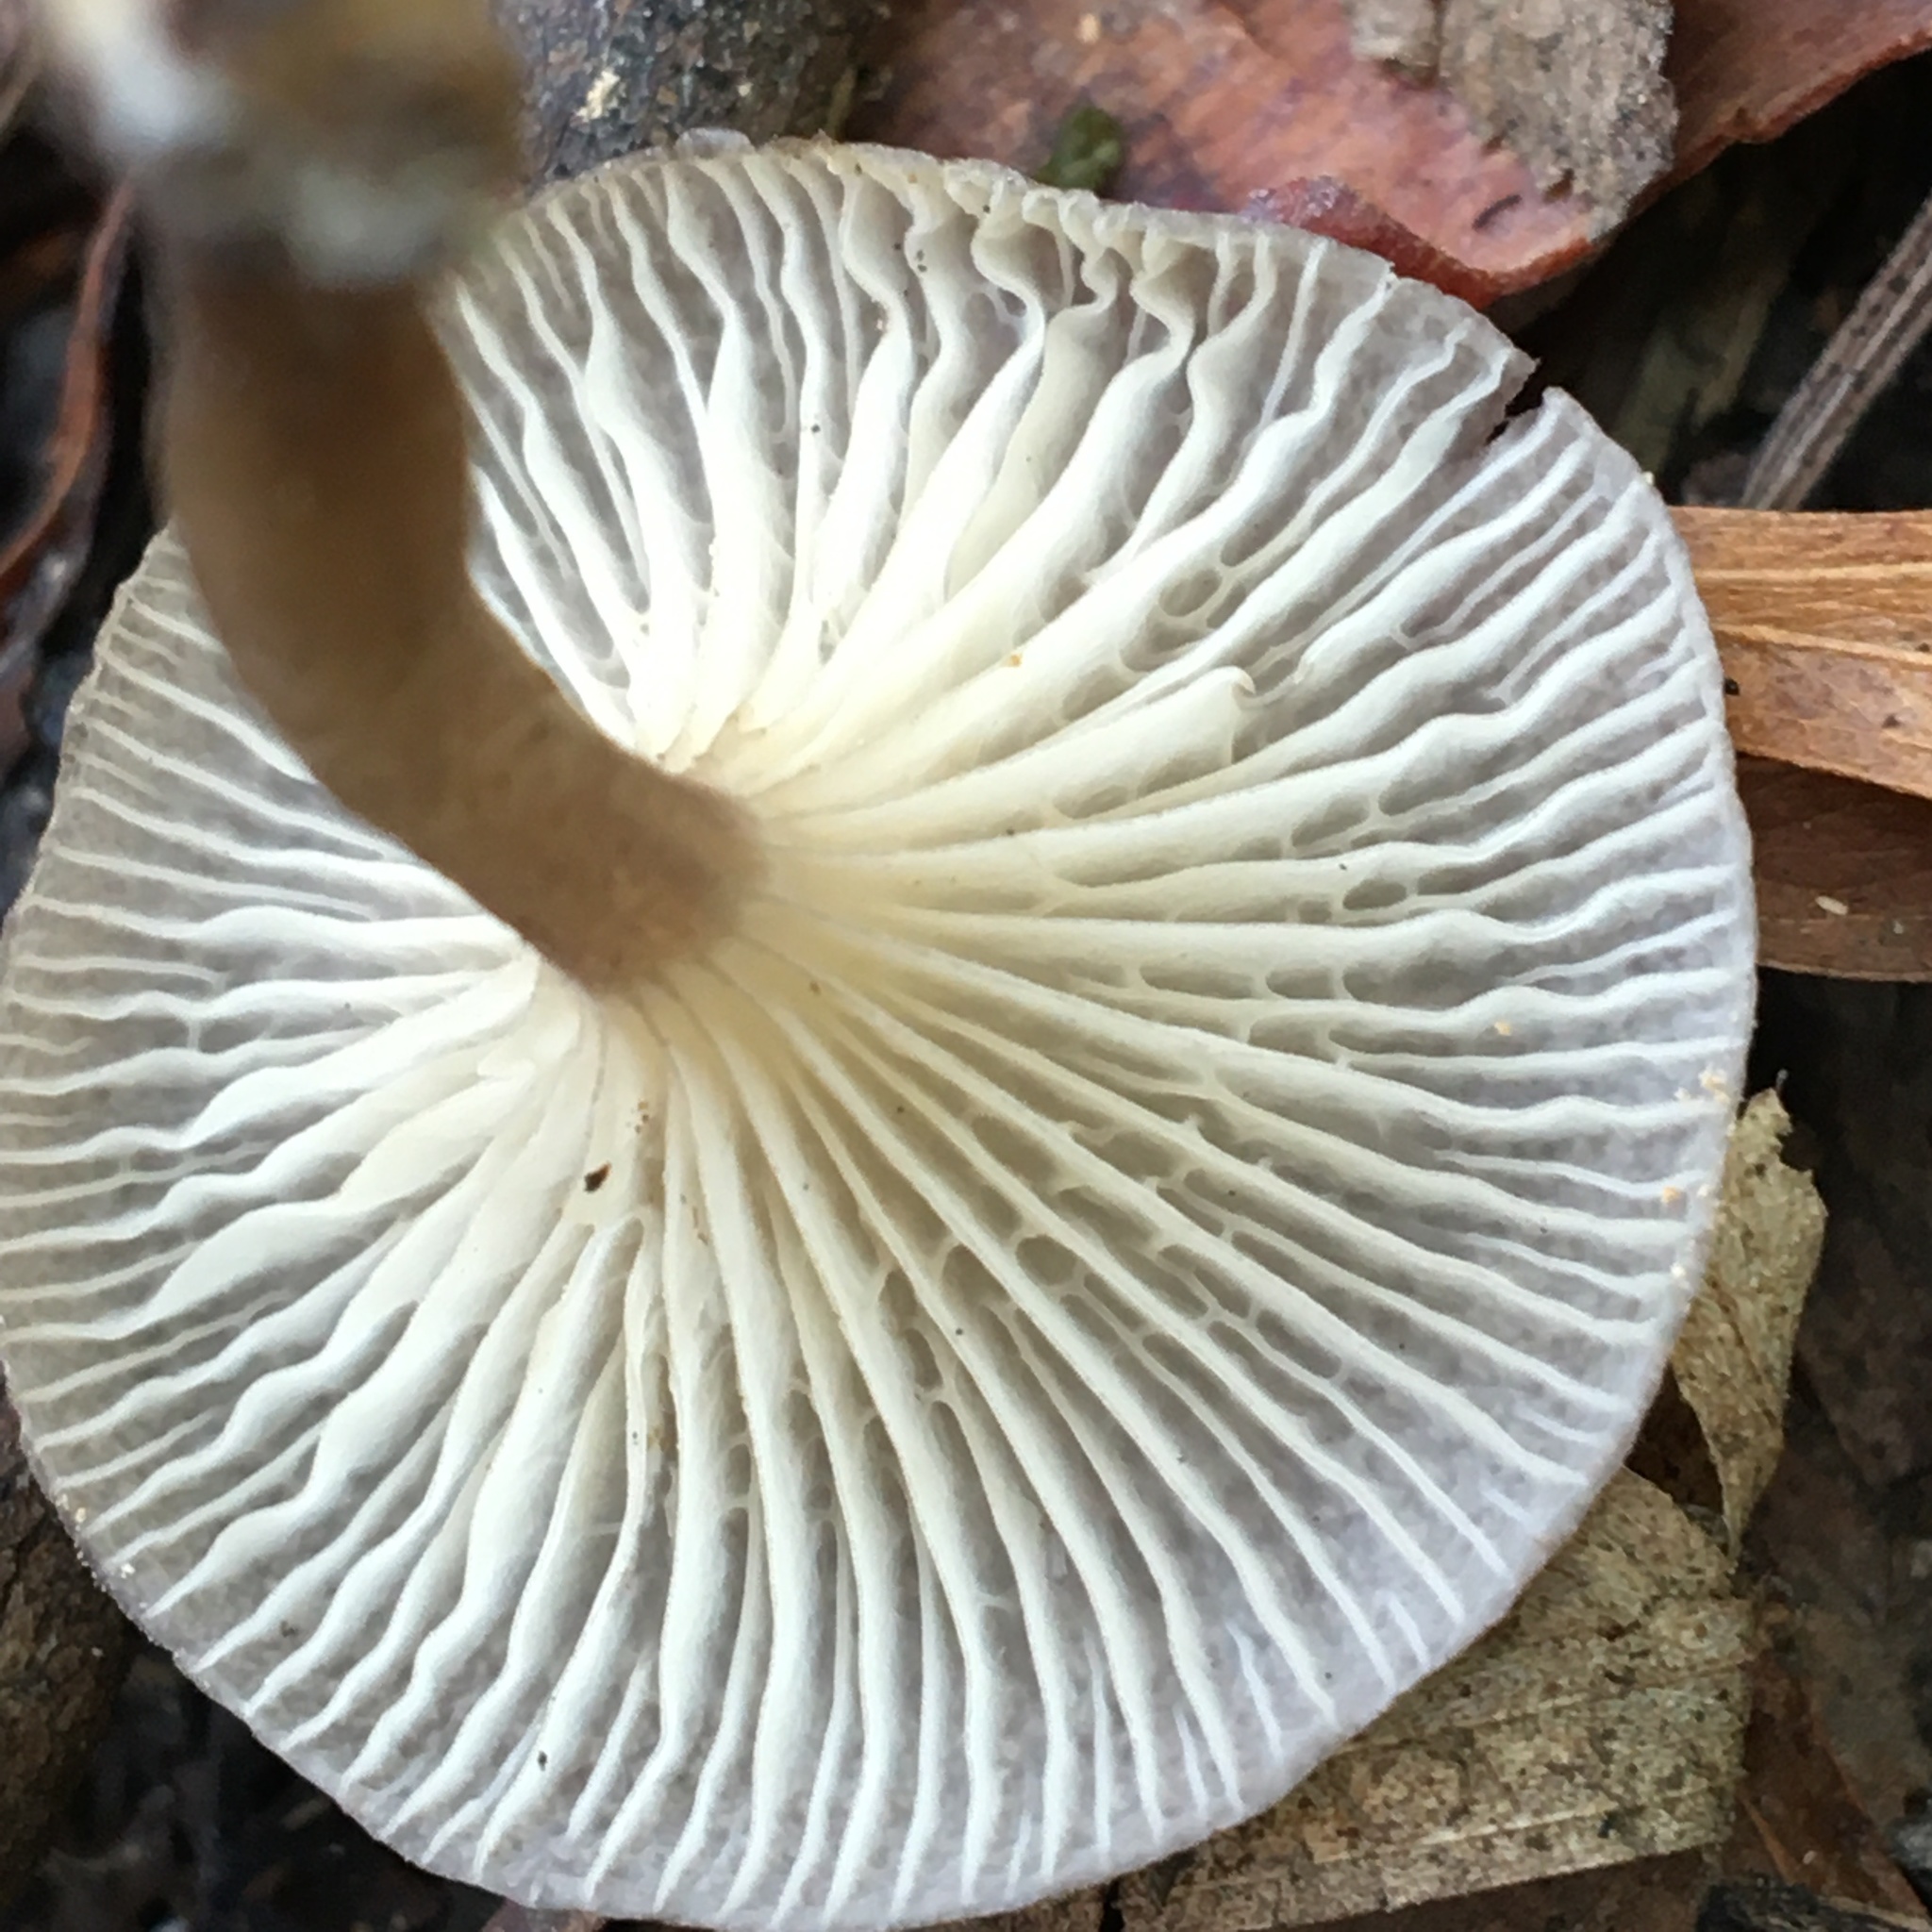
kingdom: Fungi
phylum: Basidiomycota
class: Agaricomycetes
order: Agaricales
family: Marasmiaceae
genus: Trogia
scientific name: Trogia straminea
